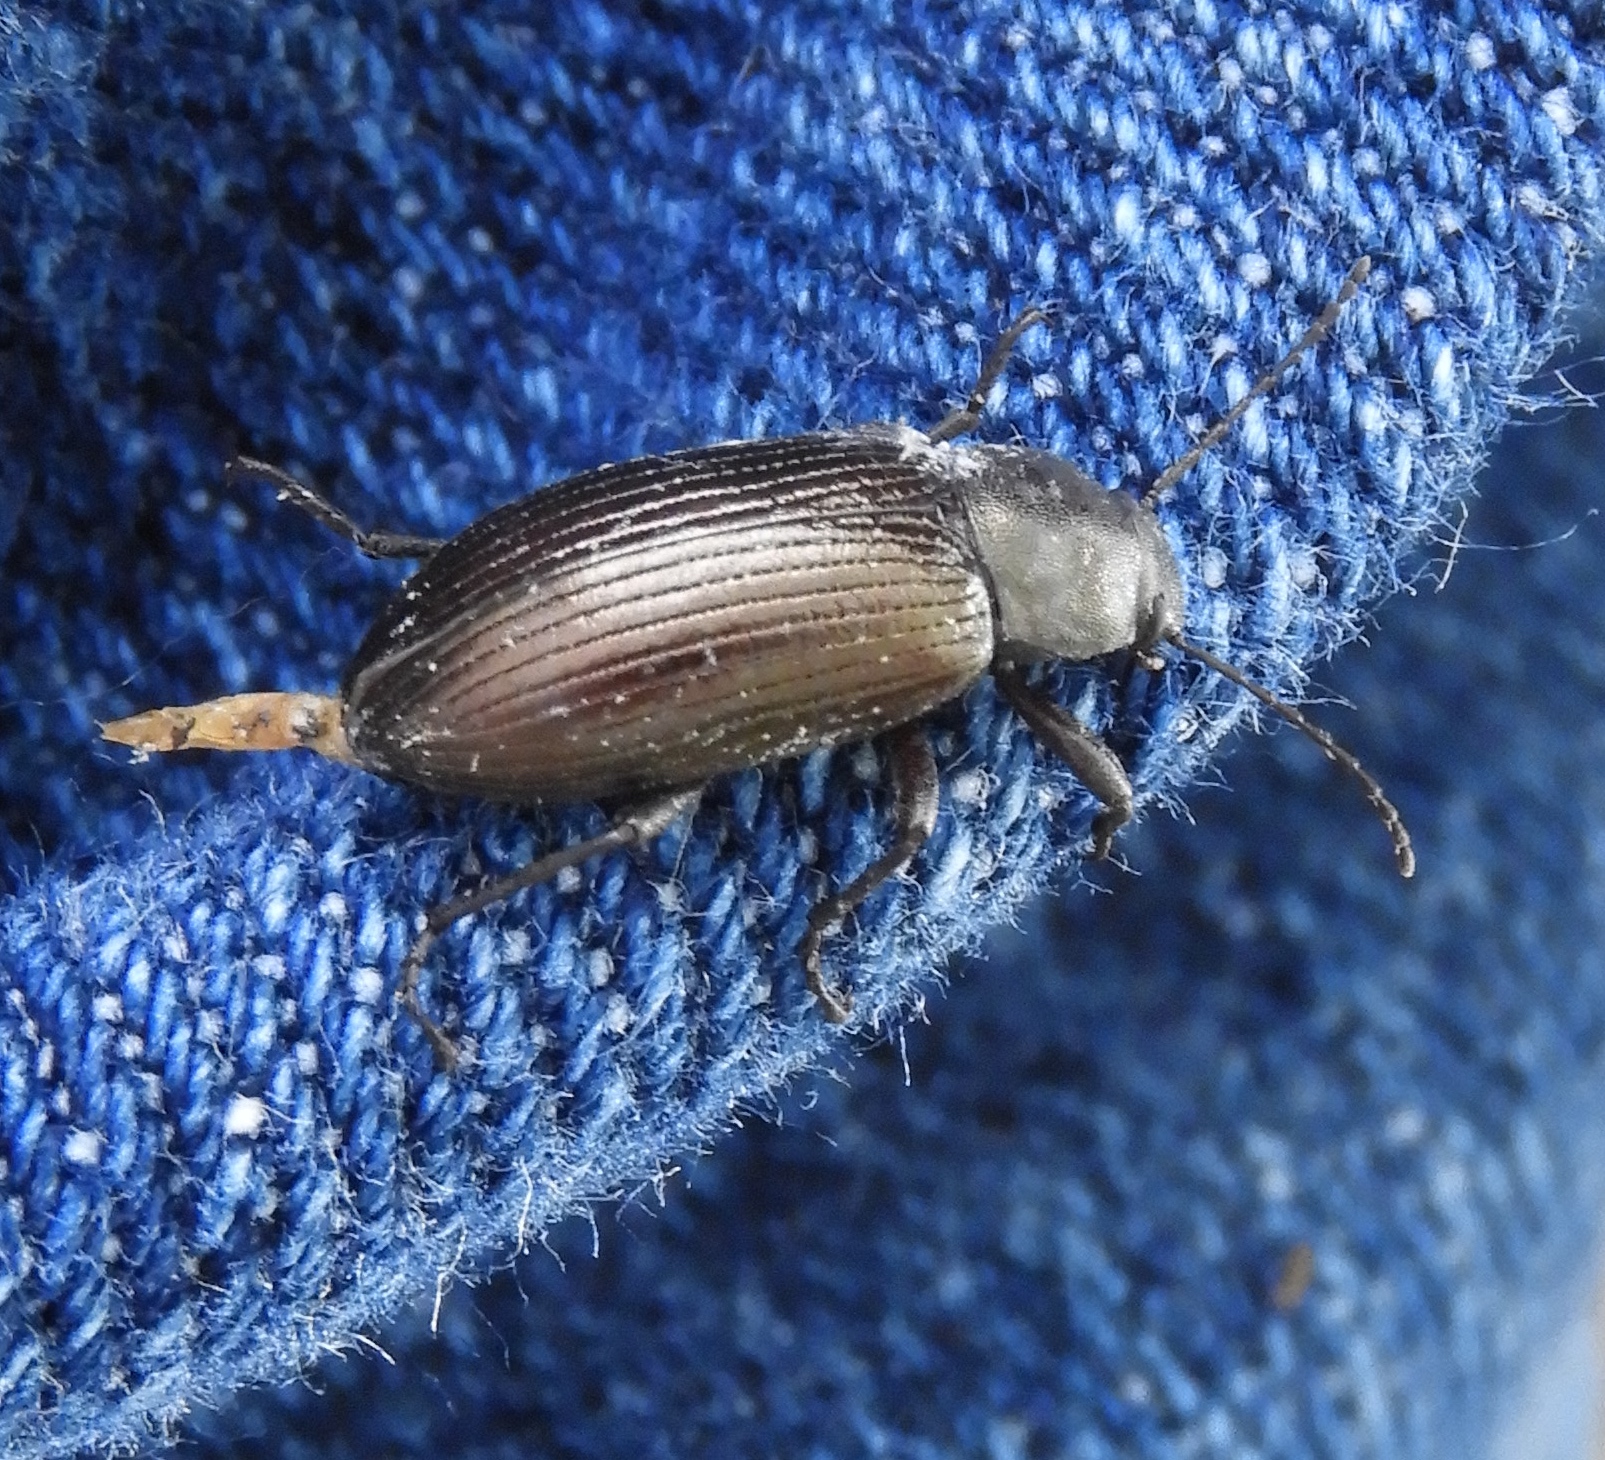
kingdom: Animalia
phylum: Arthropoda
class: Insecta
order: Coleoptera
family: Helopii
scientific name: Helopii
